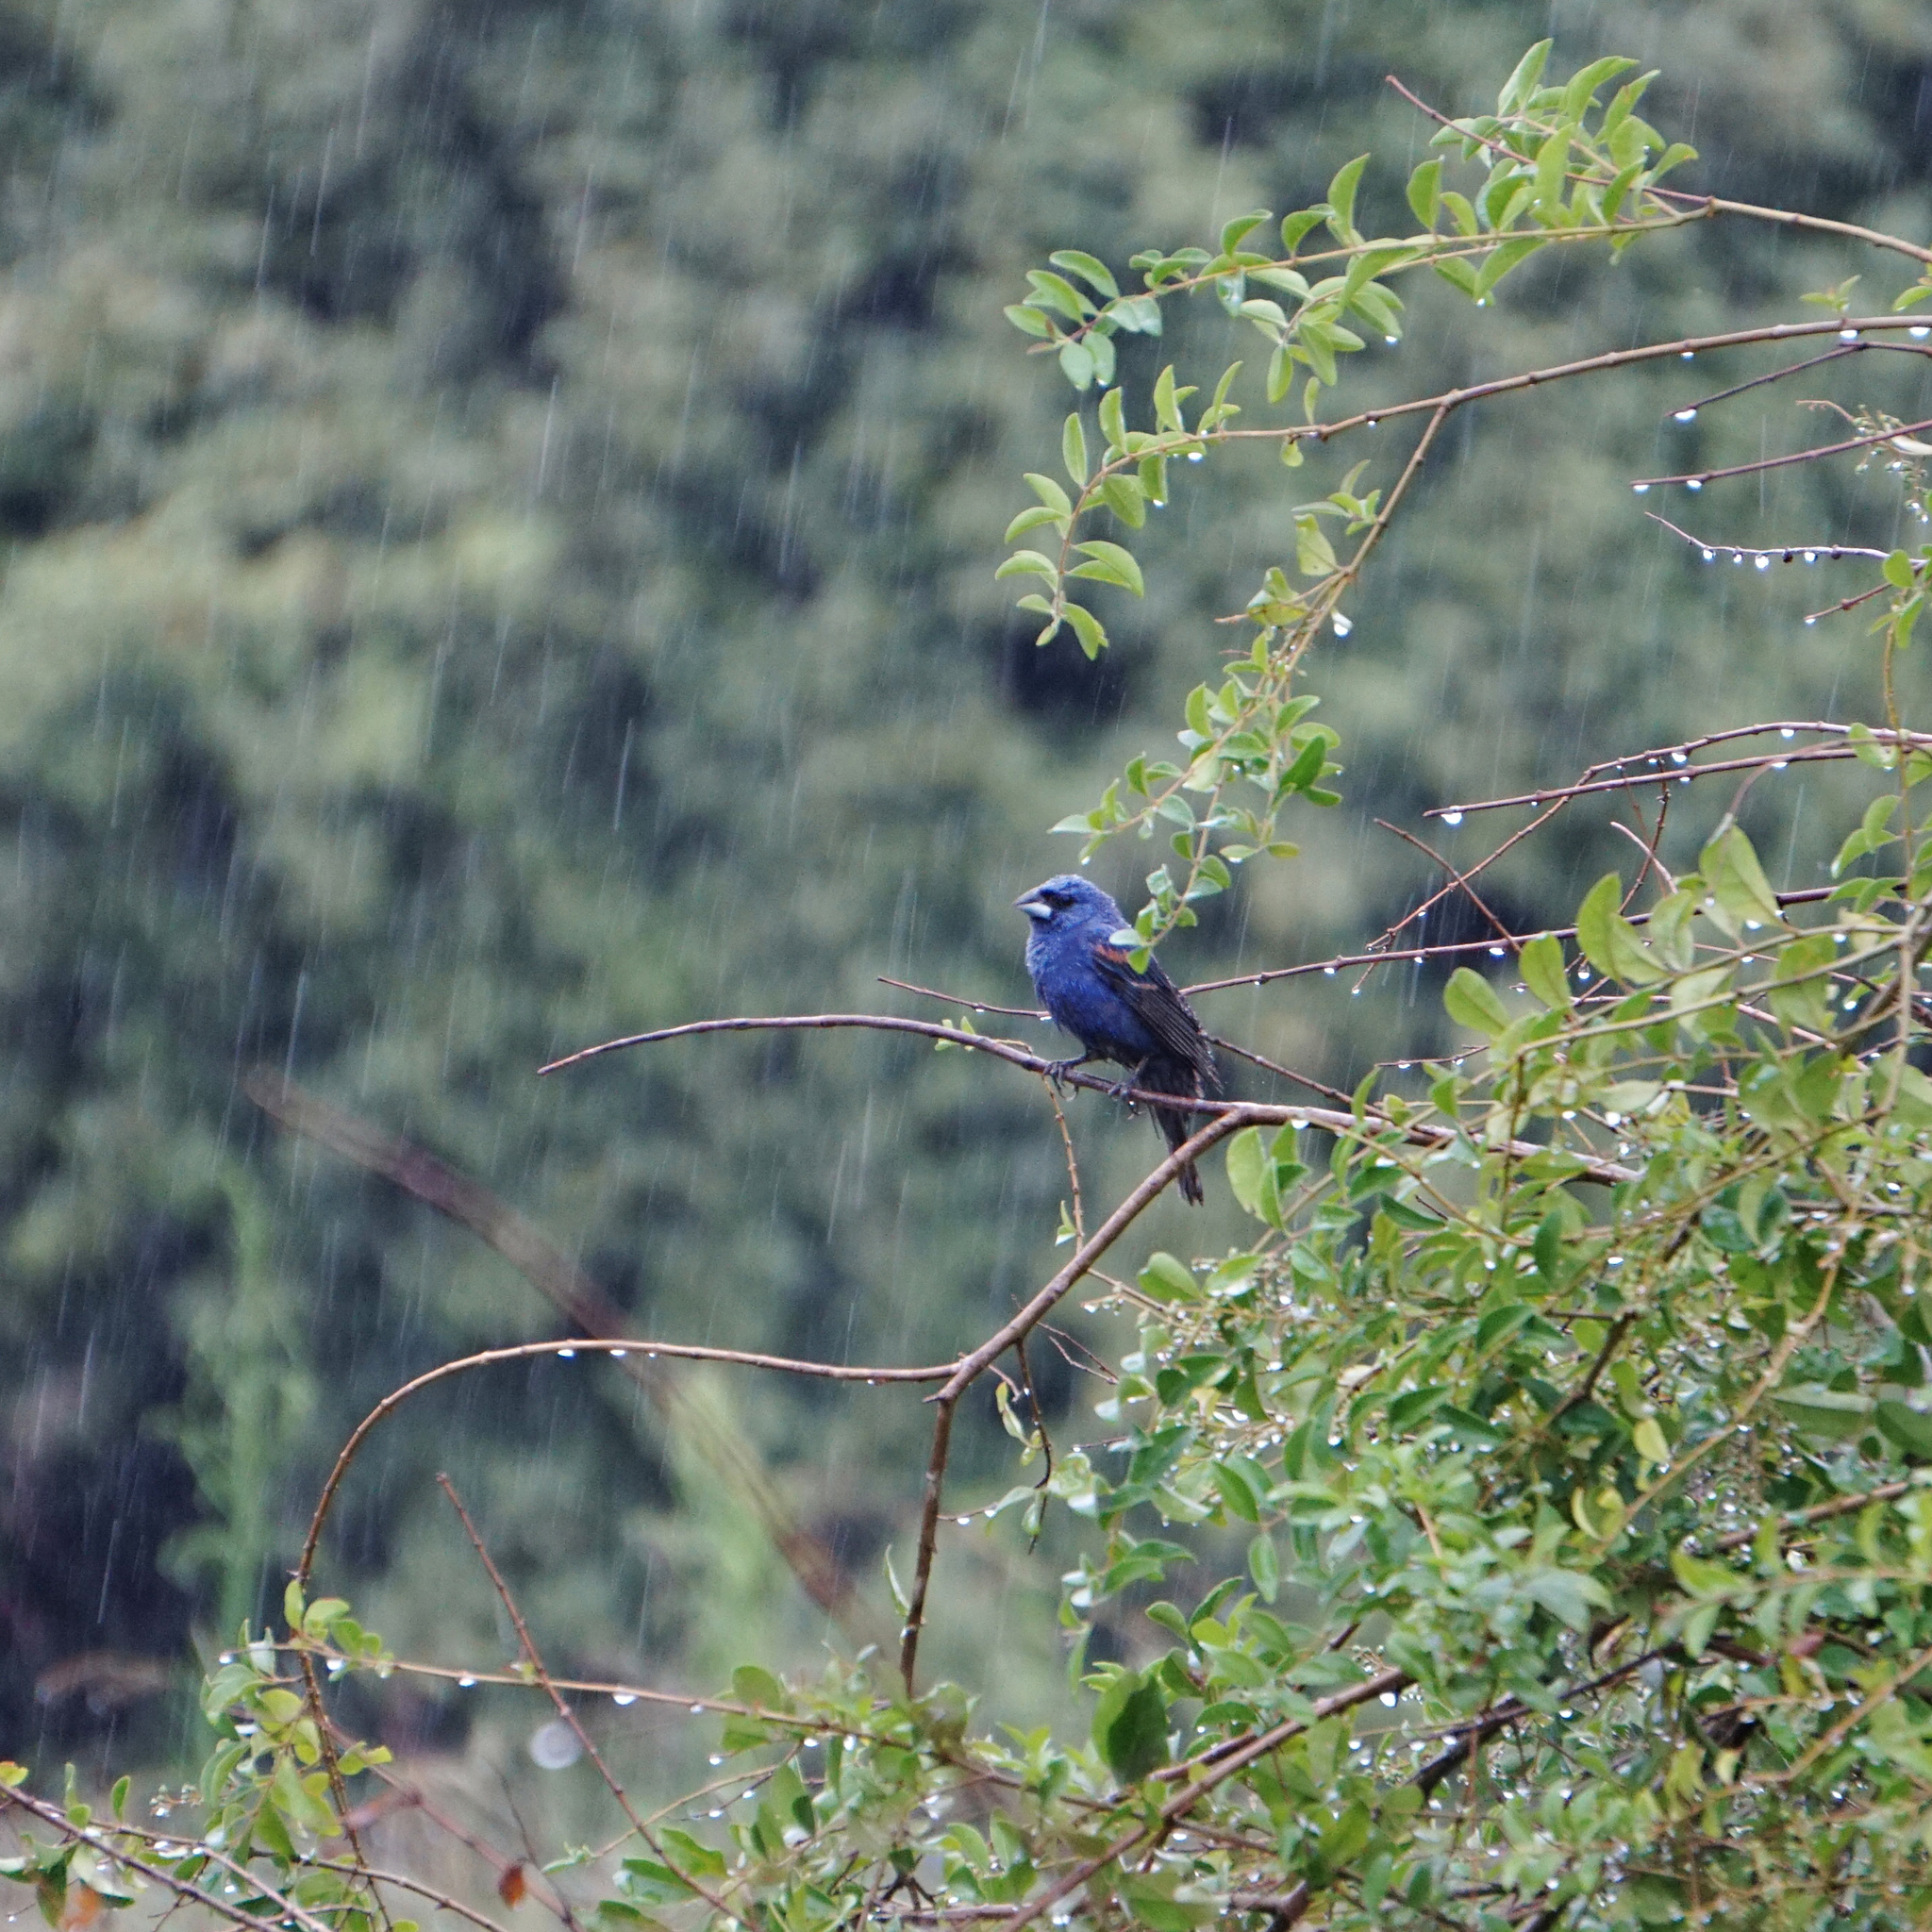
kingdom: Animalia
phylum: Chordata
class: Aves
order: Passeriformes
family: Cardinalidae
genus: Passerina
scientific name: Passerina caerulea
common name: Blue grosbeak
